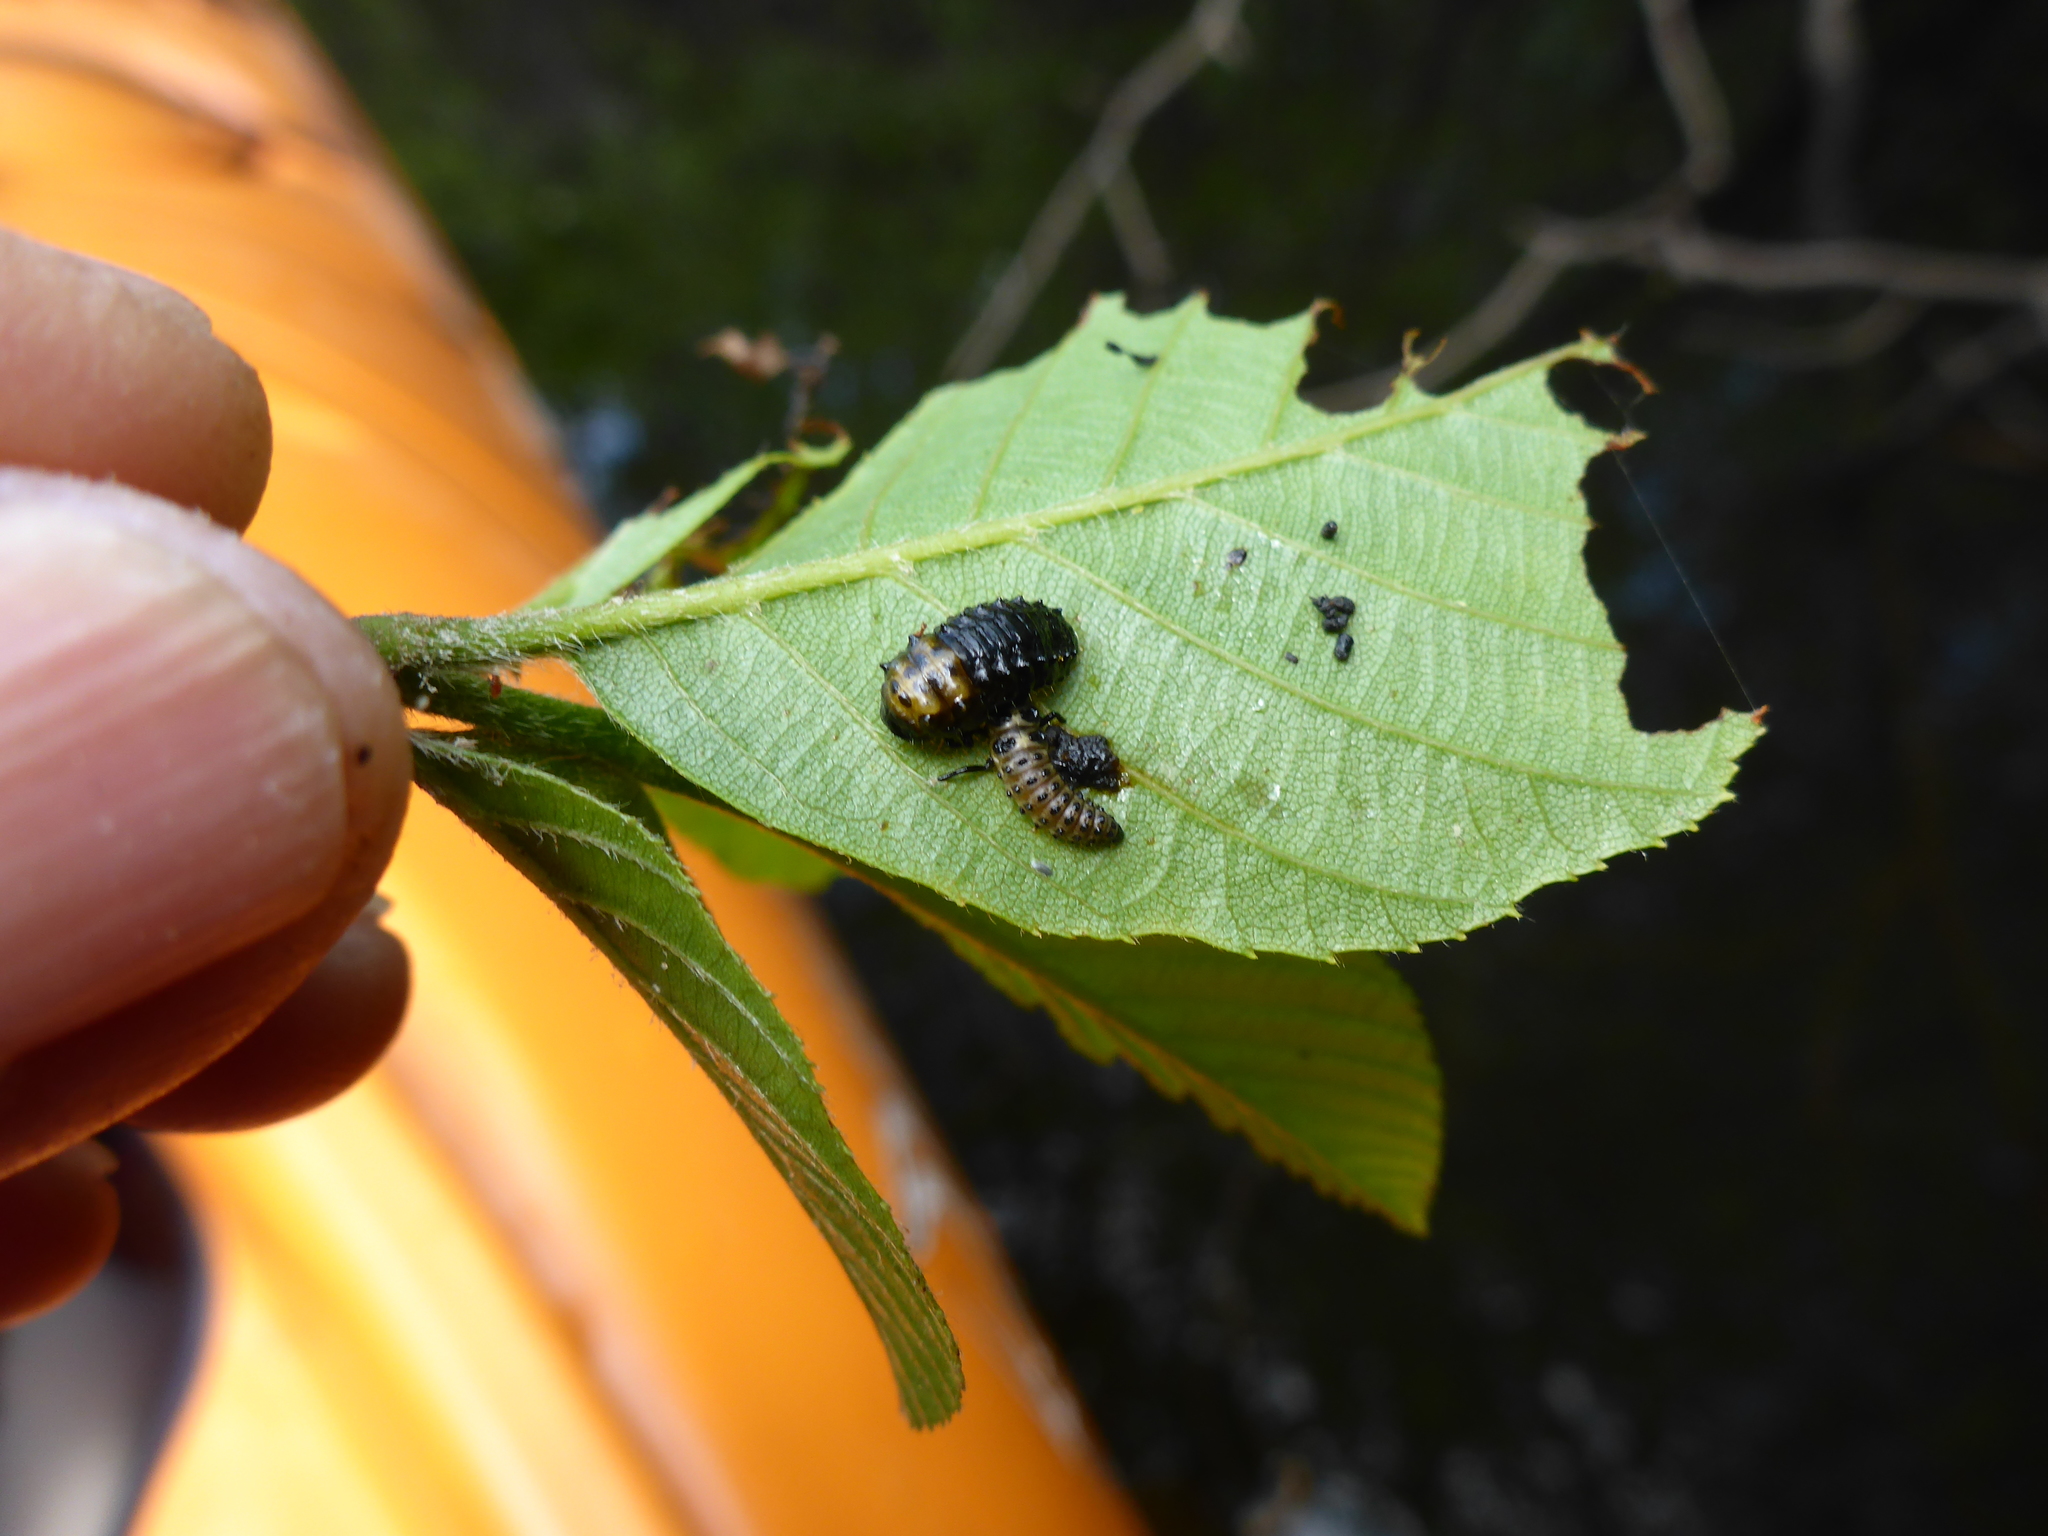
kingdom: Animalia
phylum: Arthropoda
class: Insecta
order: Coleoptera
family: Chrysomelidae
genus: Chrysomela
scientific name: Chrysomela interrupta
